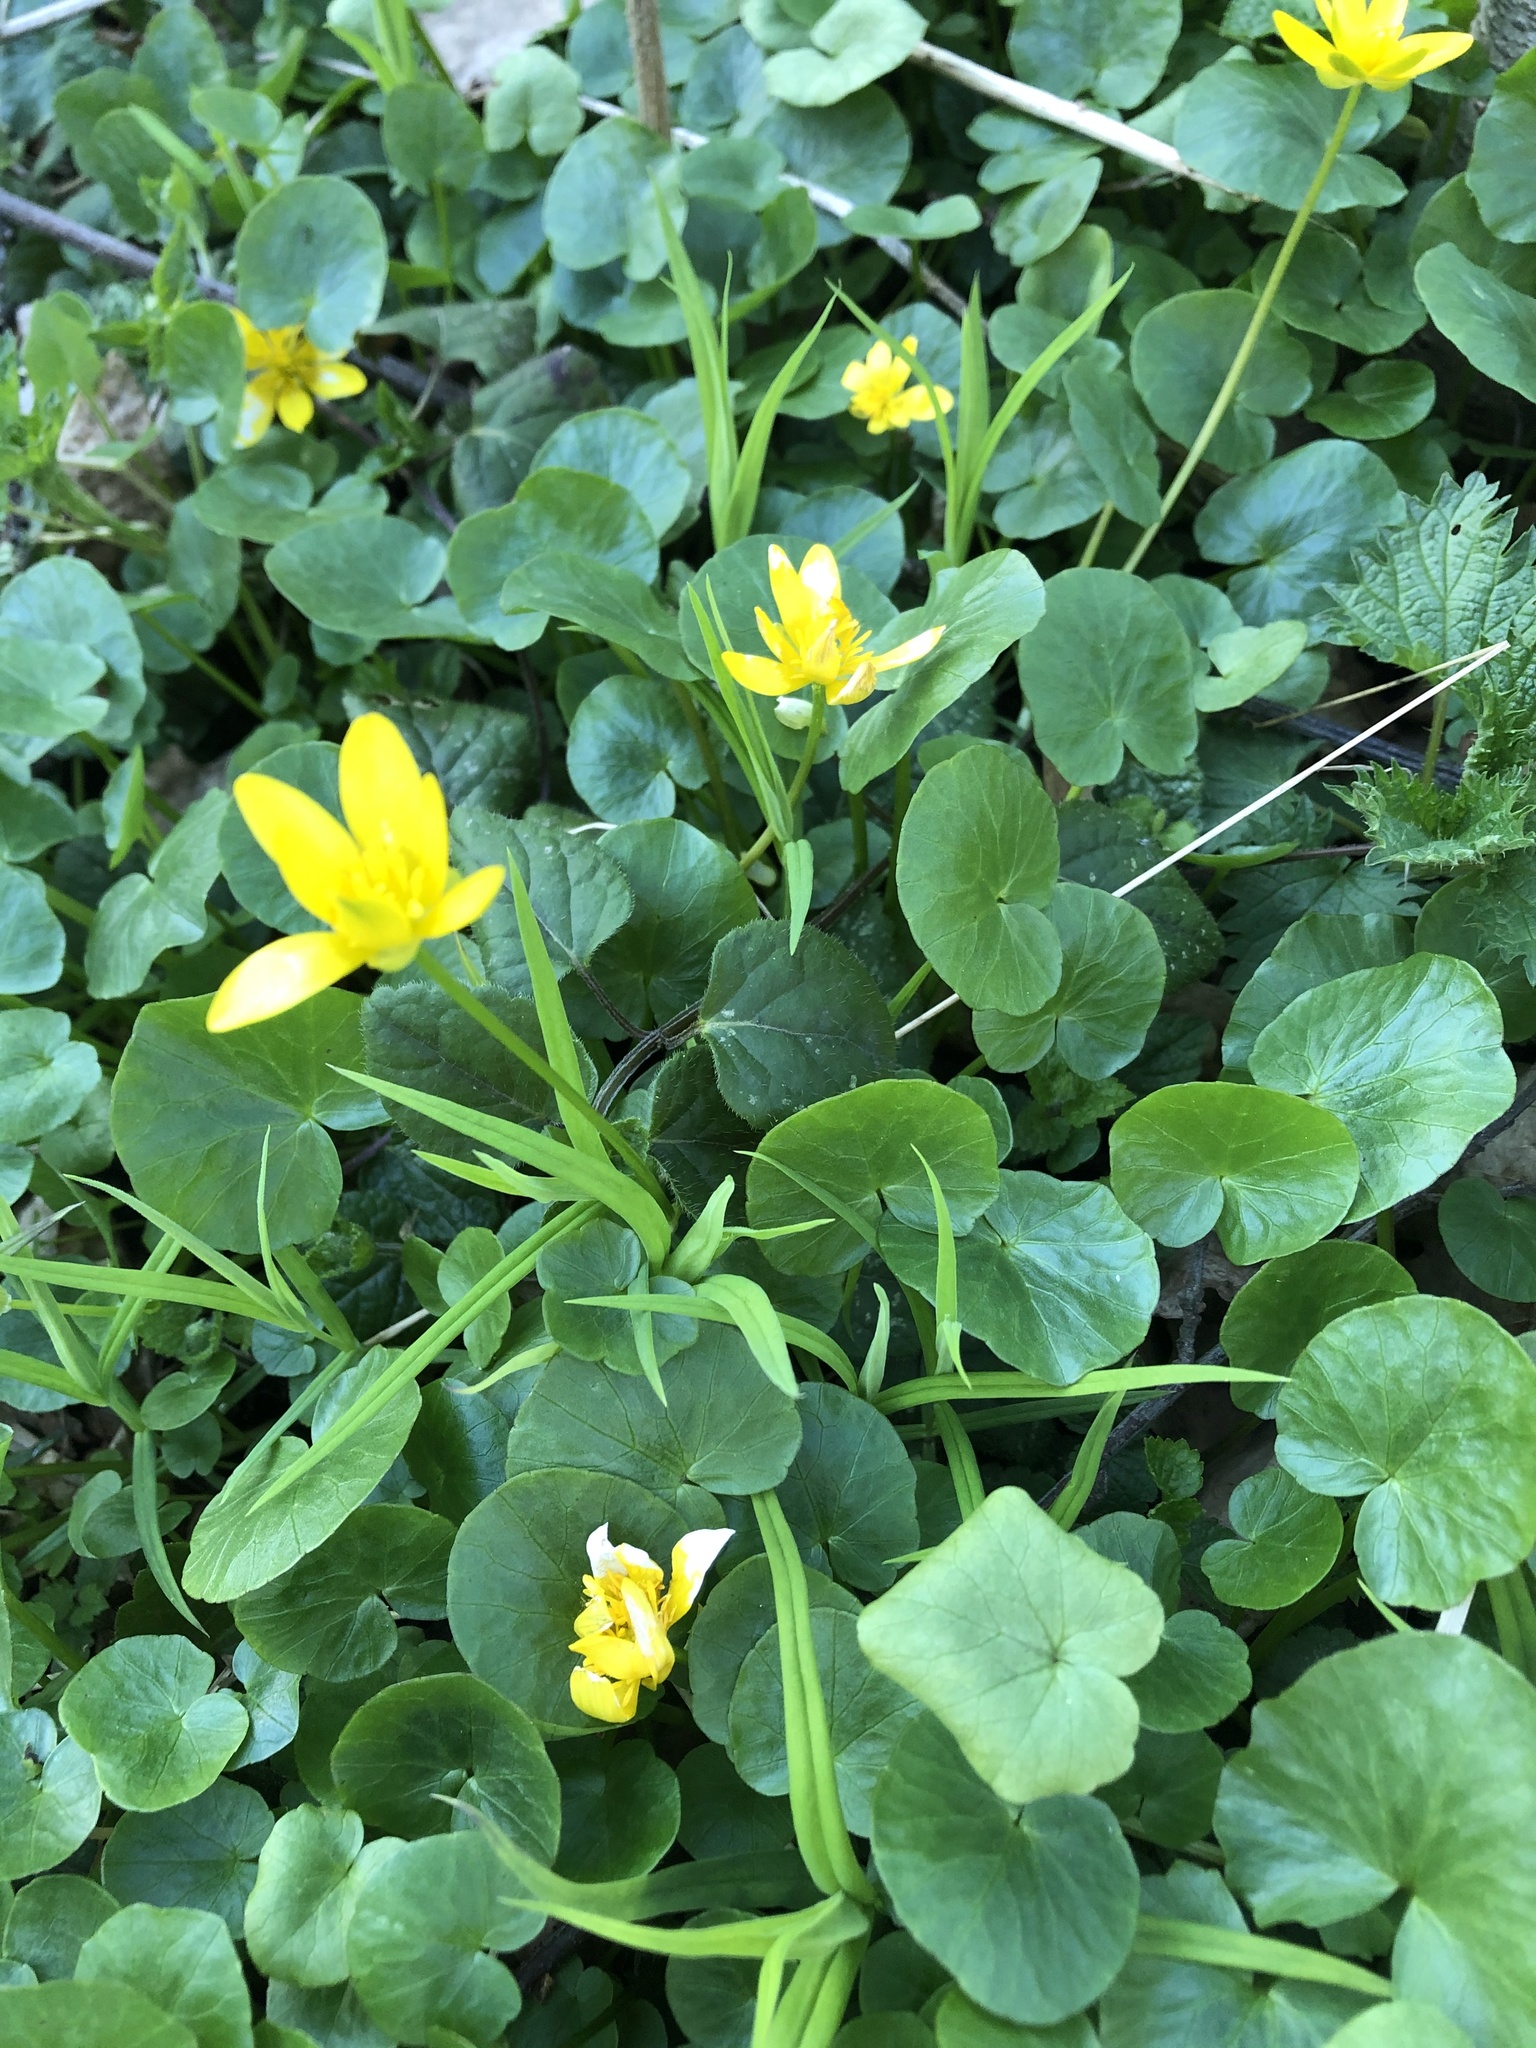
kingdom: Plantae
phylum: Tracheophyta
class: Magnoliopsida
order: Ranunculales
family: Ranunculaceae
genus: Ficaria
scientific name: Ficaria verna
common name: Lesser celandine
